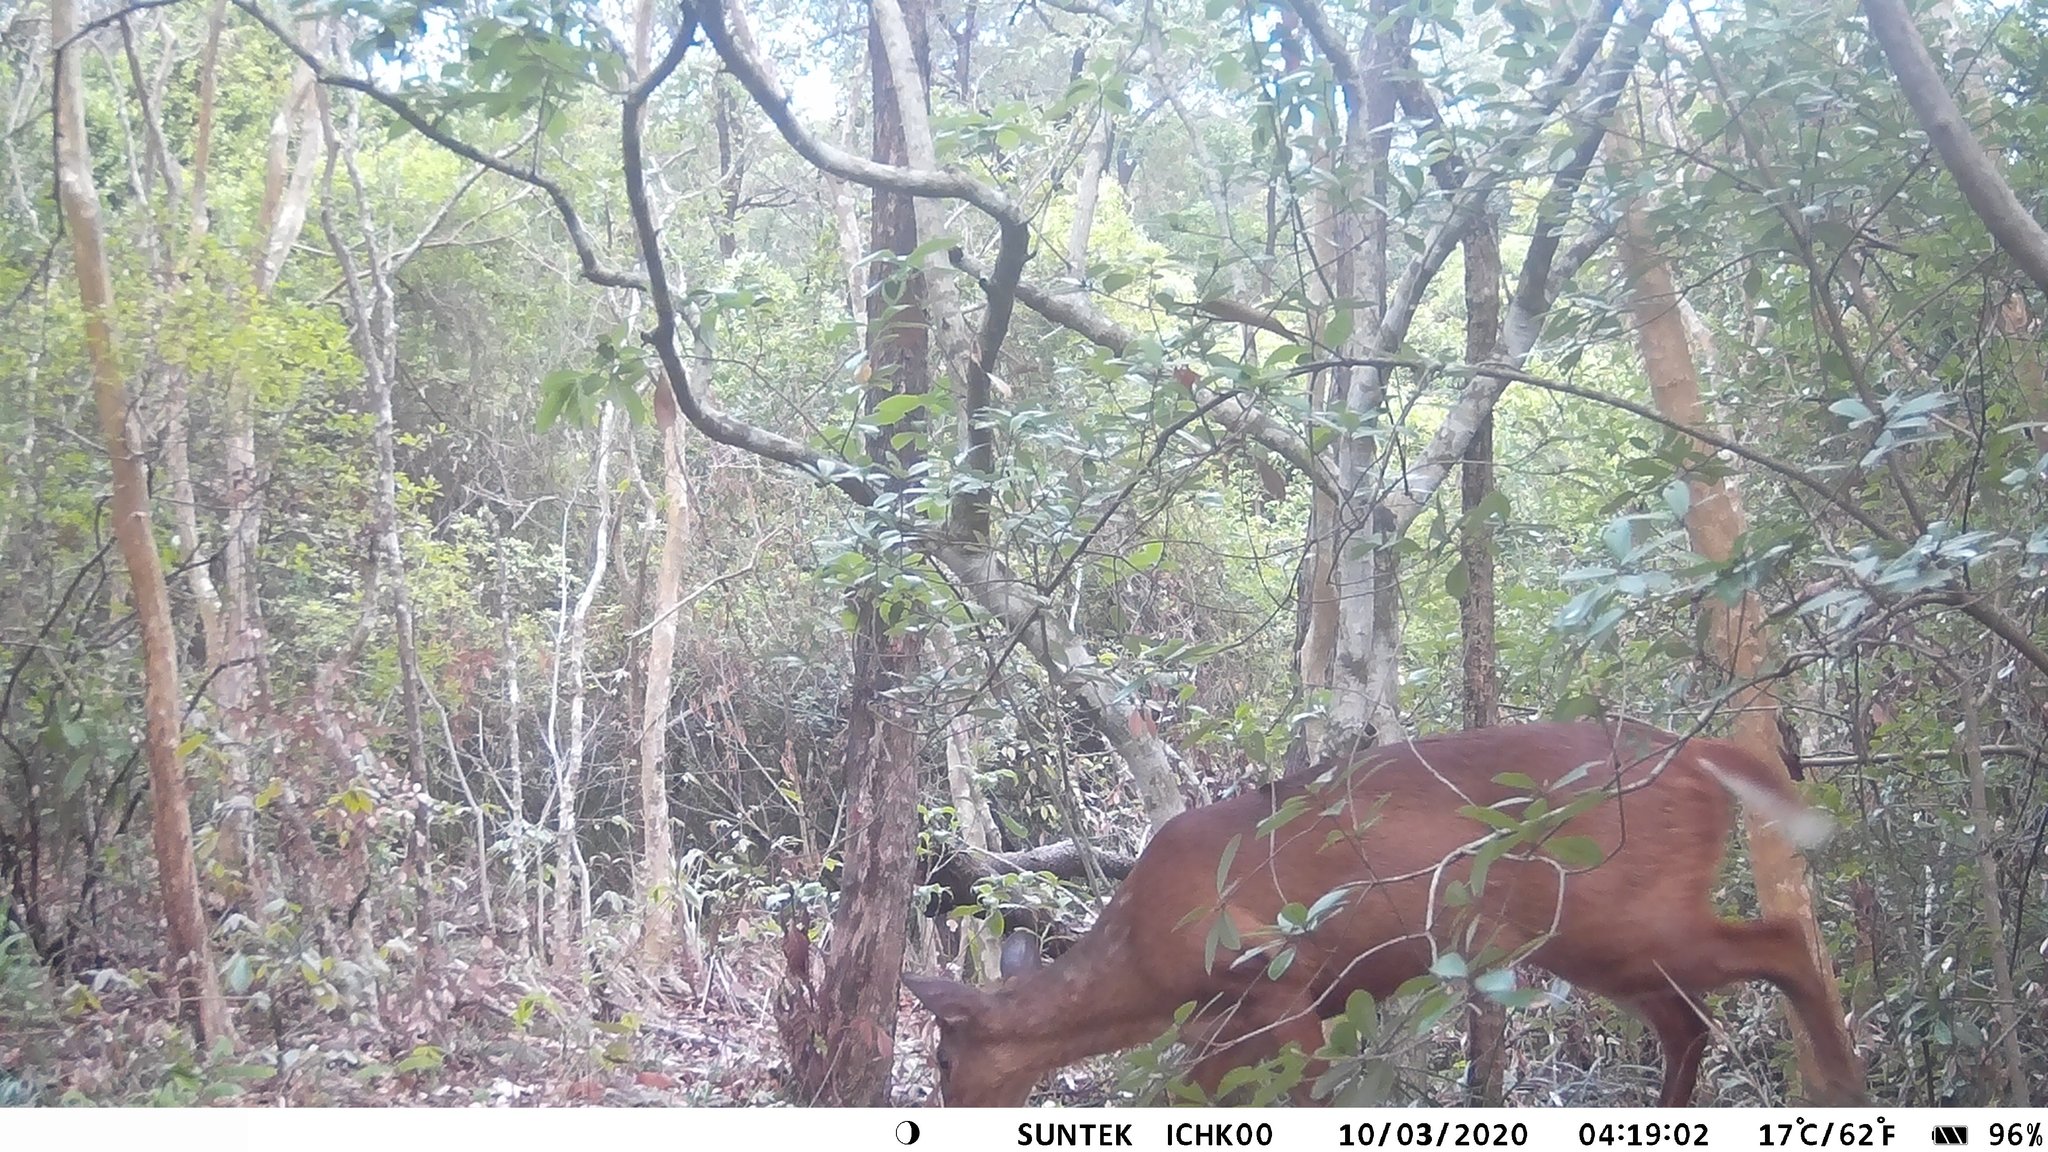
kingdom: Animalia
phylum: Chordata
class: Mammalia
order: Artiodactyla
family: Cervidae
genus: Muntiacus
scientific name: Muntiacus muntjak
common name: Indian muntjac
